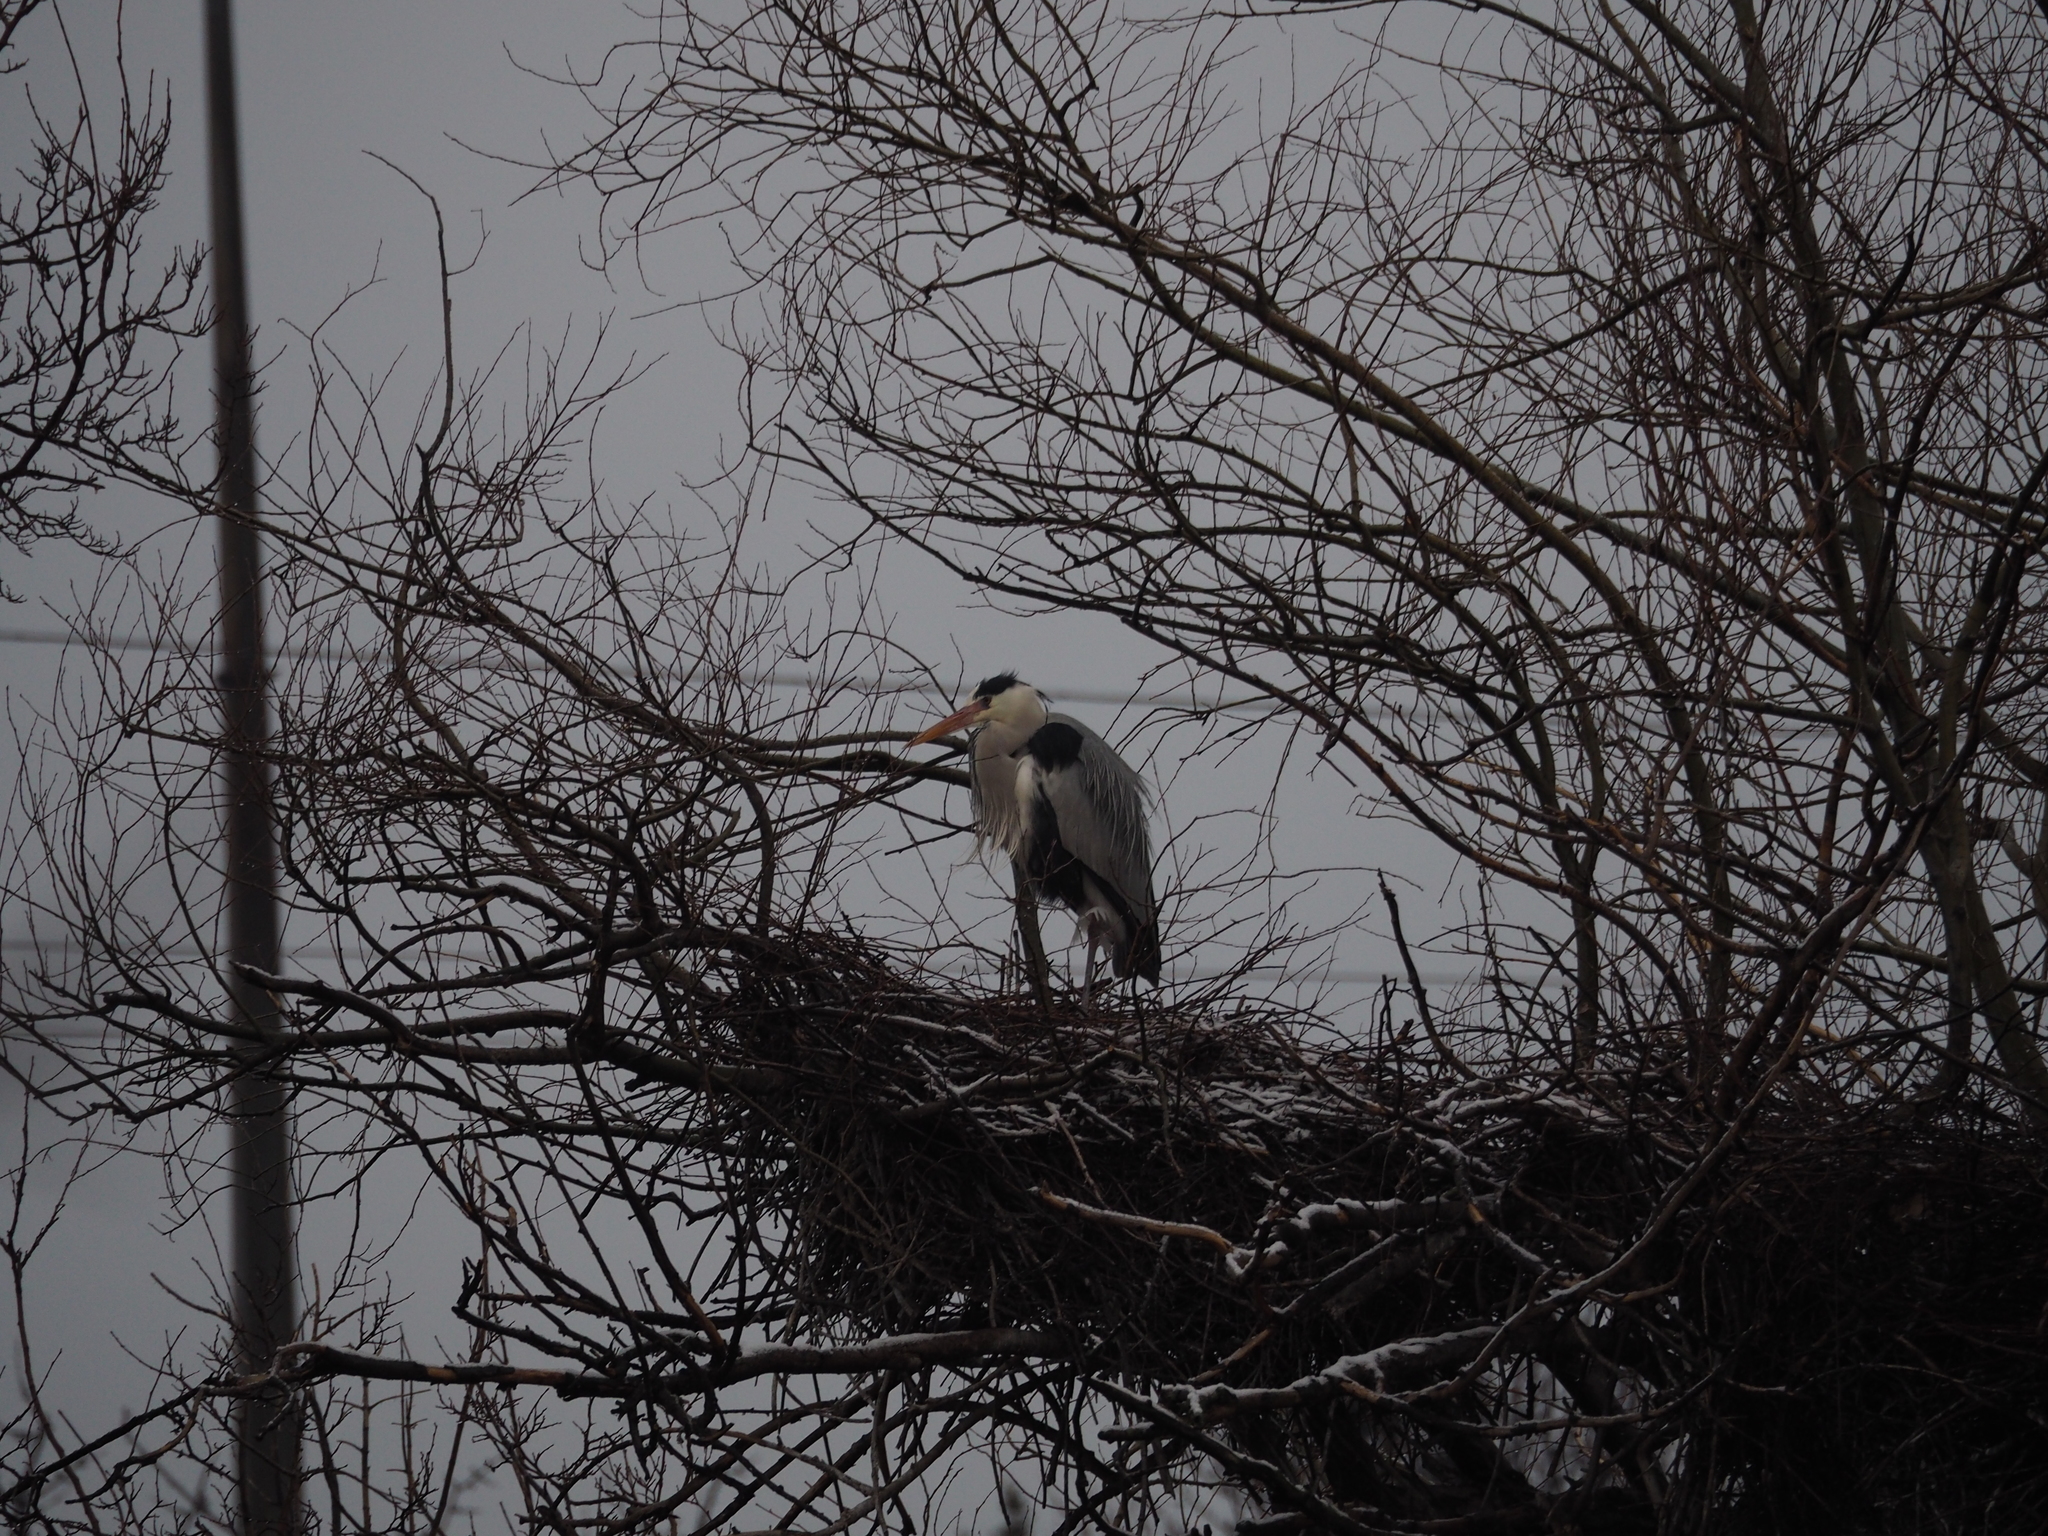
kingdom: Animalia
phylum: Chordata
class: Aves
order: Pelecaniformes
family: Ardeidae
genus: Ardea
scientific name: Ardea cinerea
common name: Grey heron
